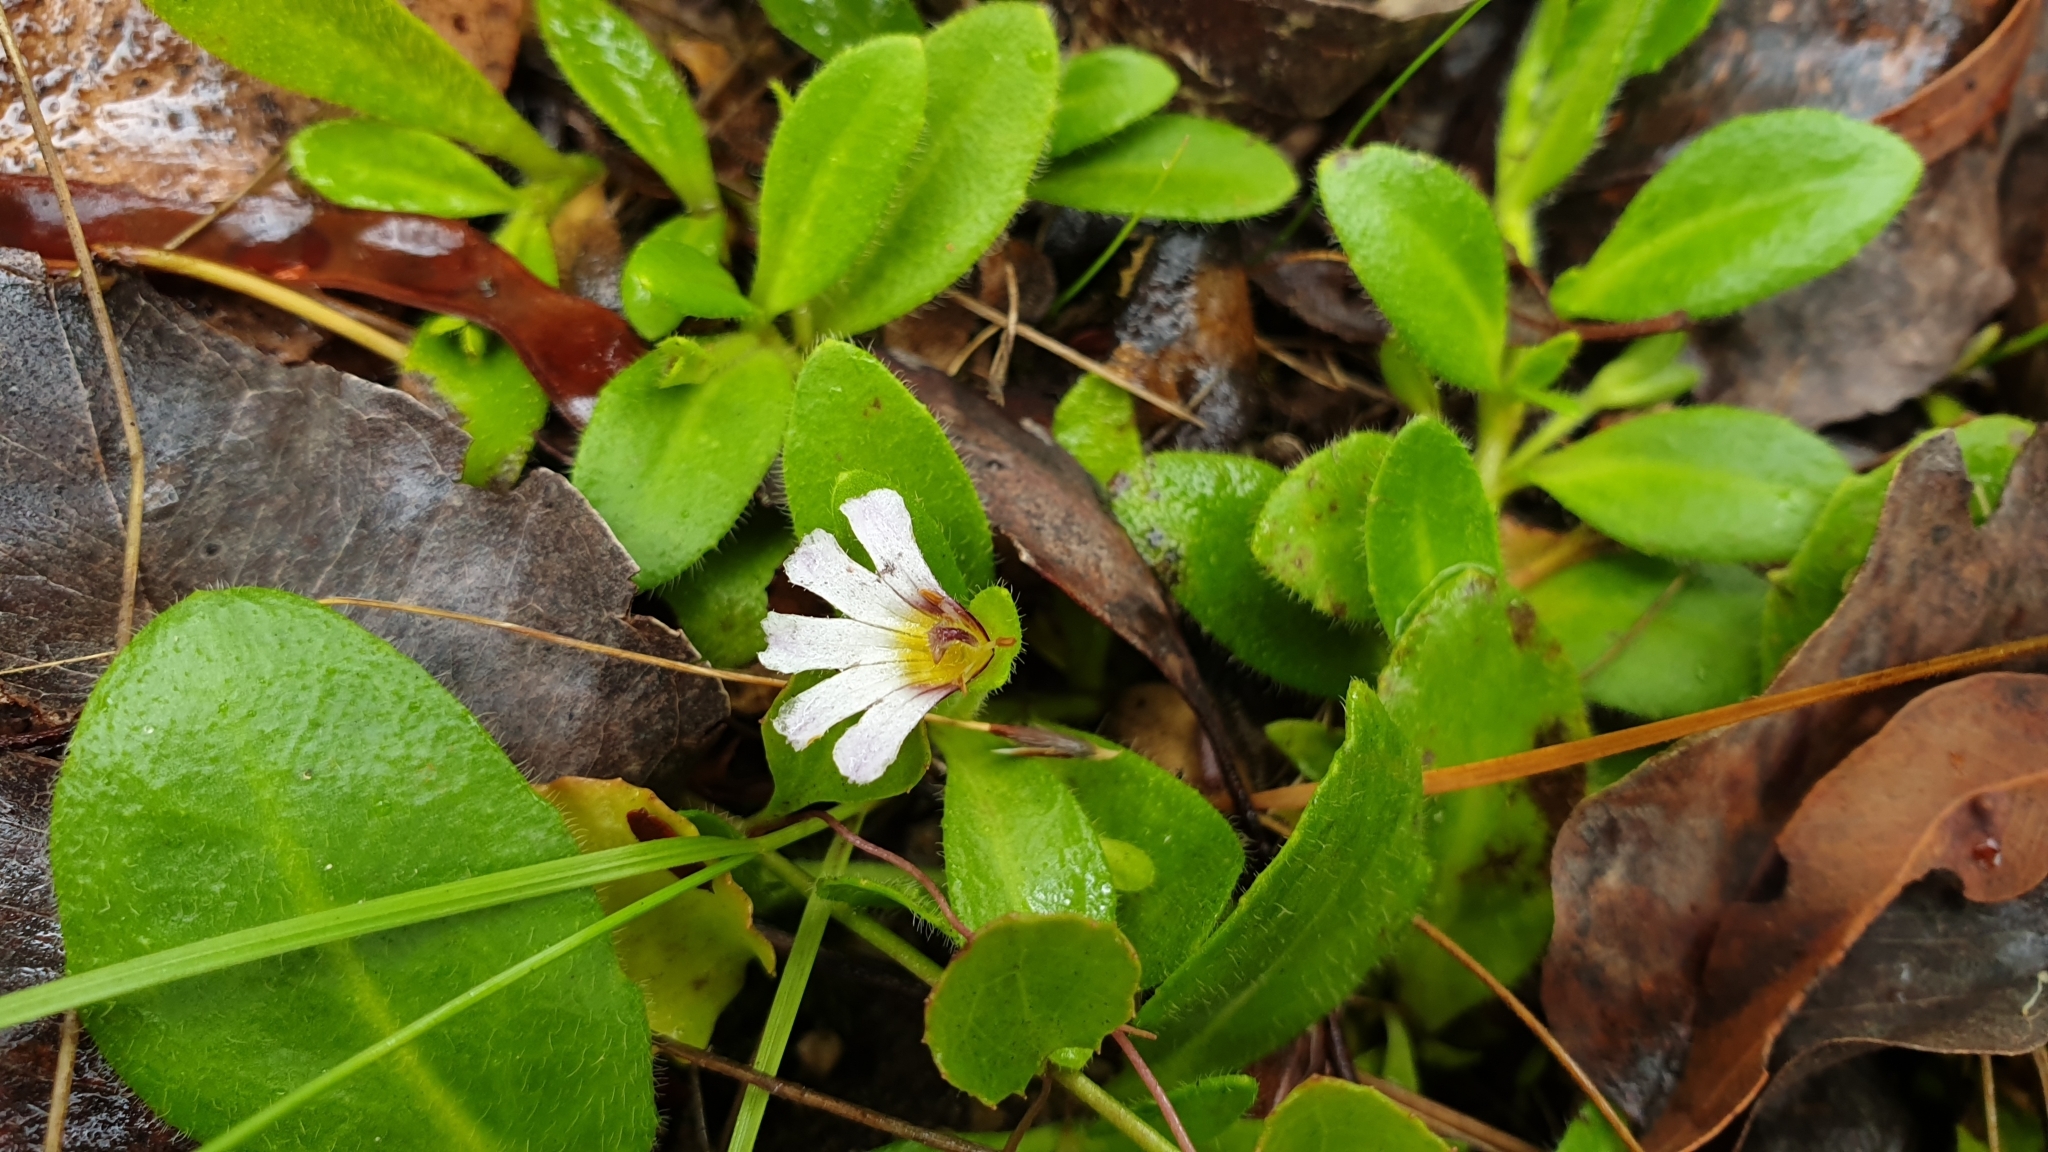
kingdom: Plantae
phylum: Tracheophyta
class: Magnoliopsida
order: Asterales
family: Goodeniaceae
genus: Scaevola
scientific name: Scaevola albida
